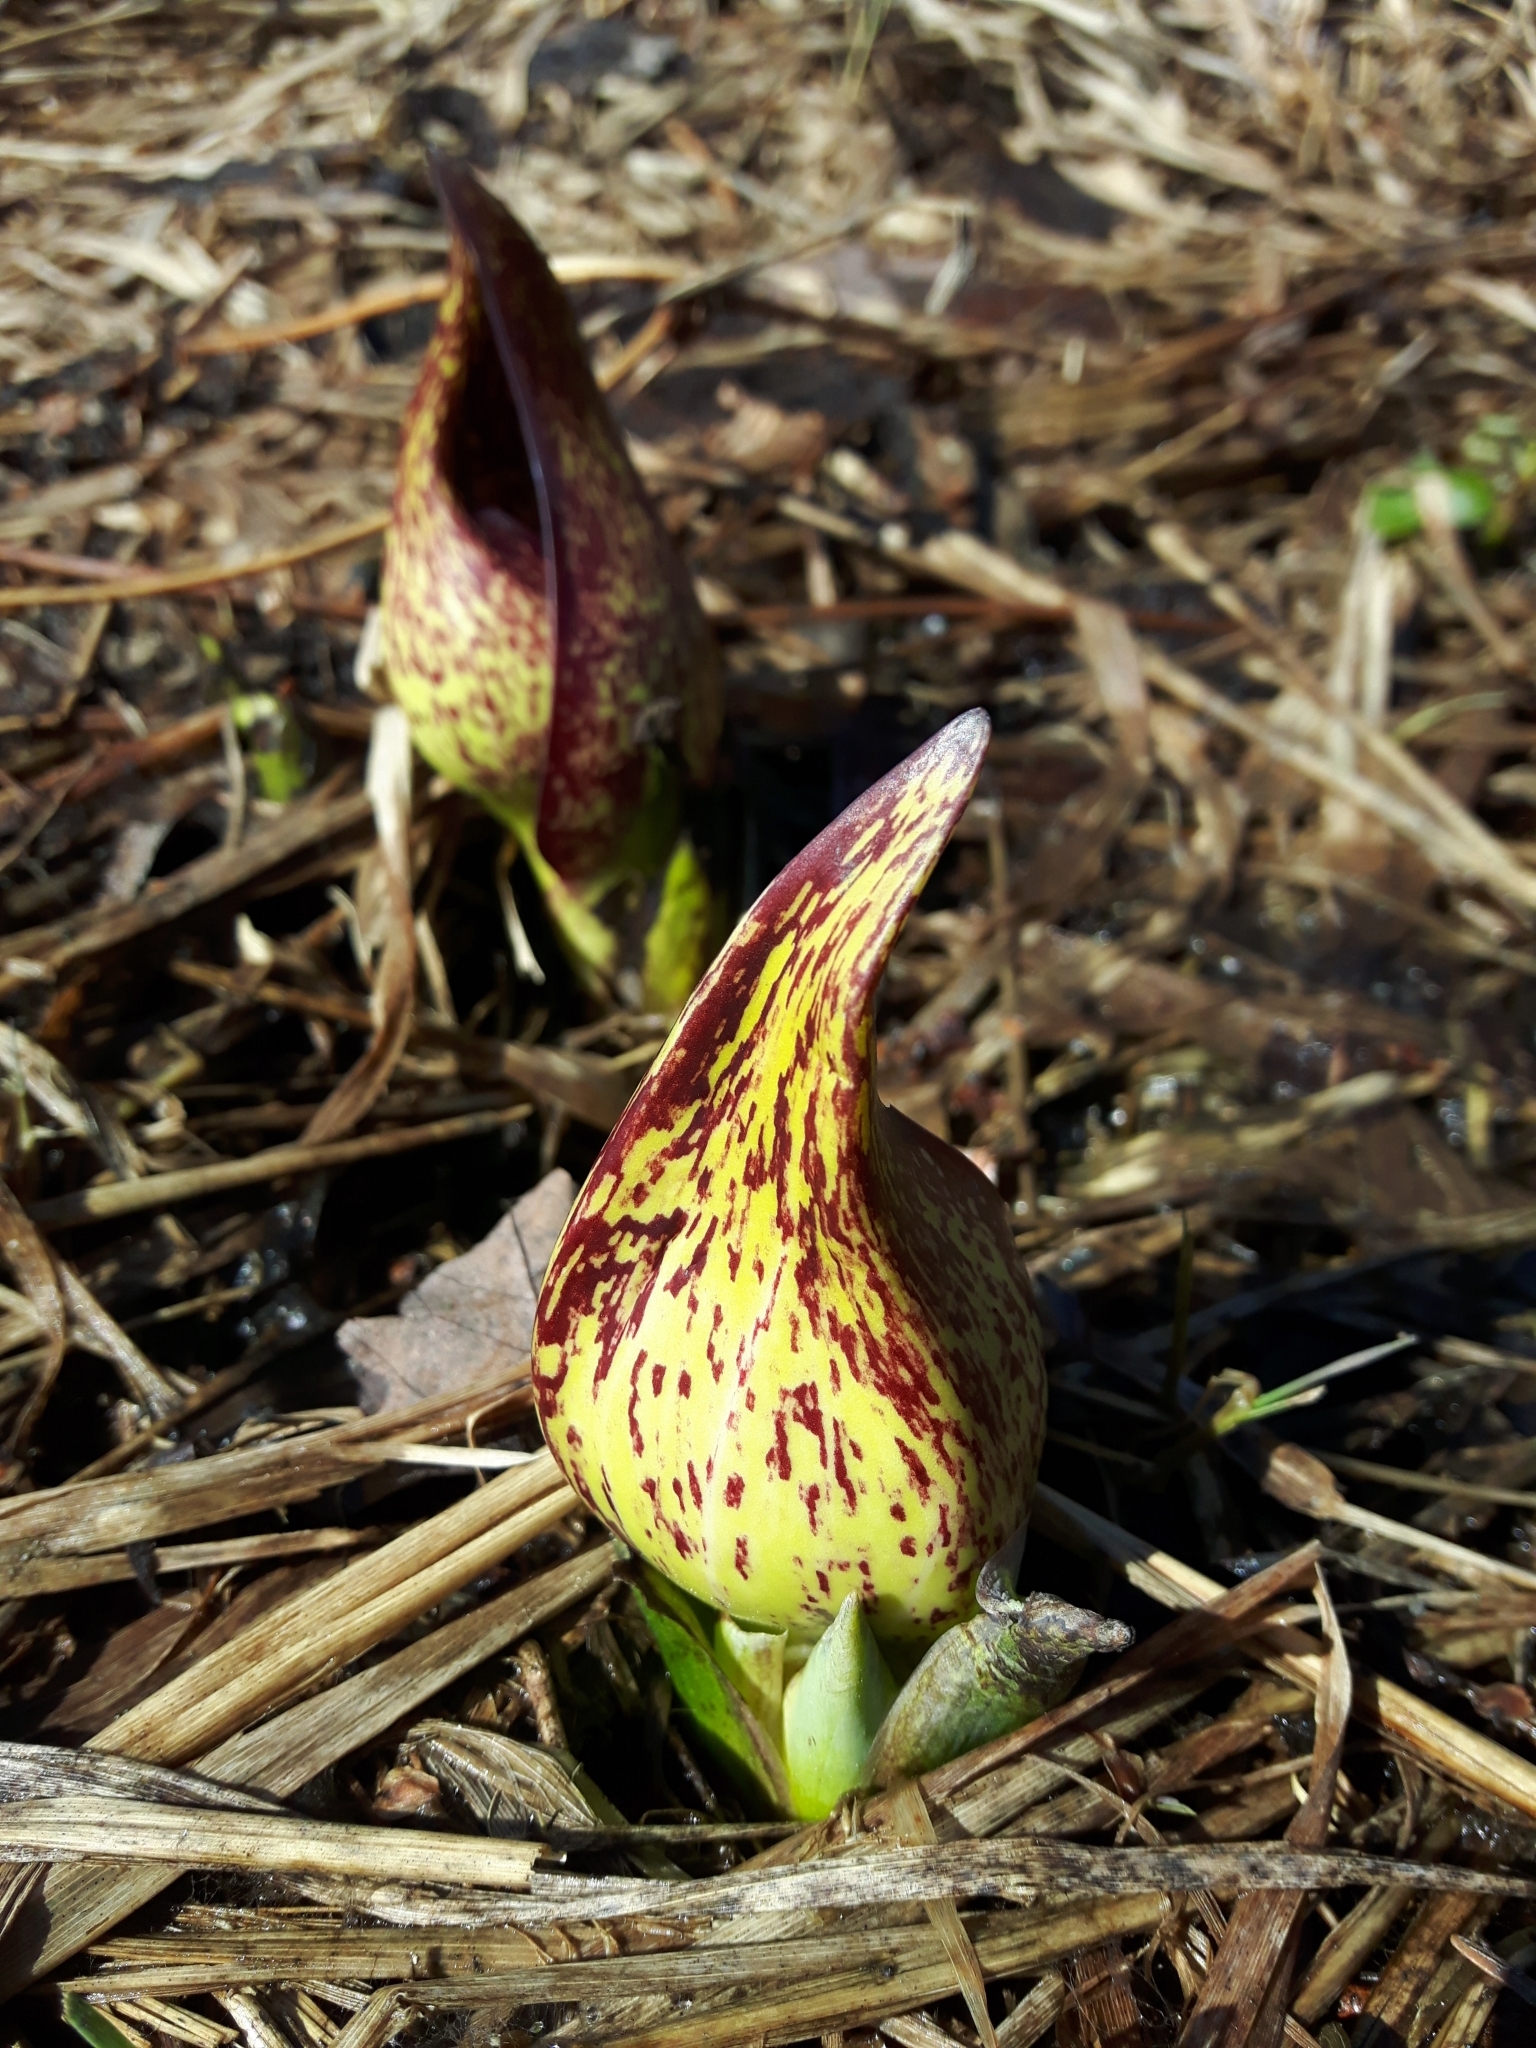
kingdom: Plantae
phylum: Tracheophyta
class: Liliopsida
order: Alismatales
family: Araceae
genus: Symplocarpus
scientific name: Symplocarpus foetidus
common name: Eastern skunk cabbage
